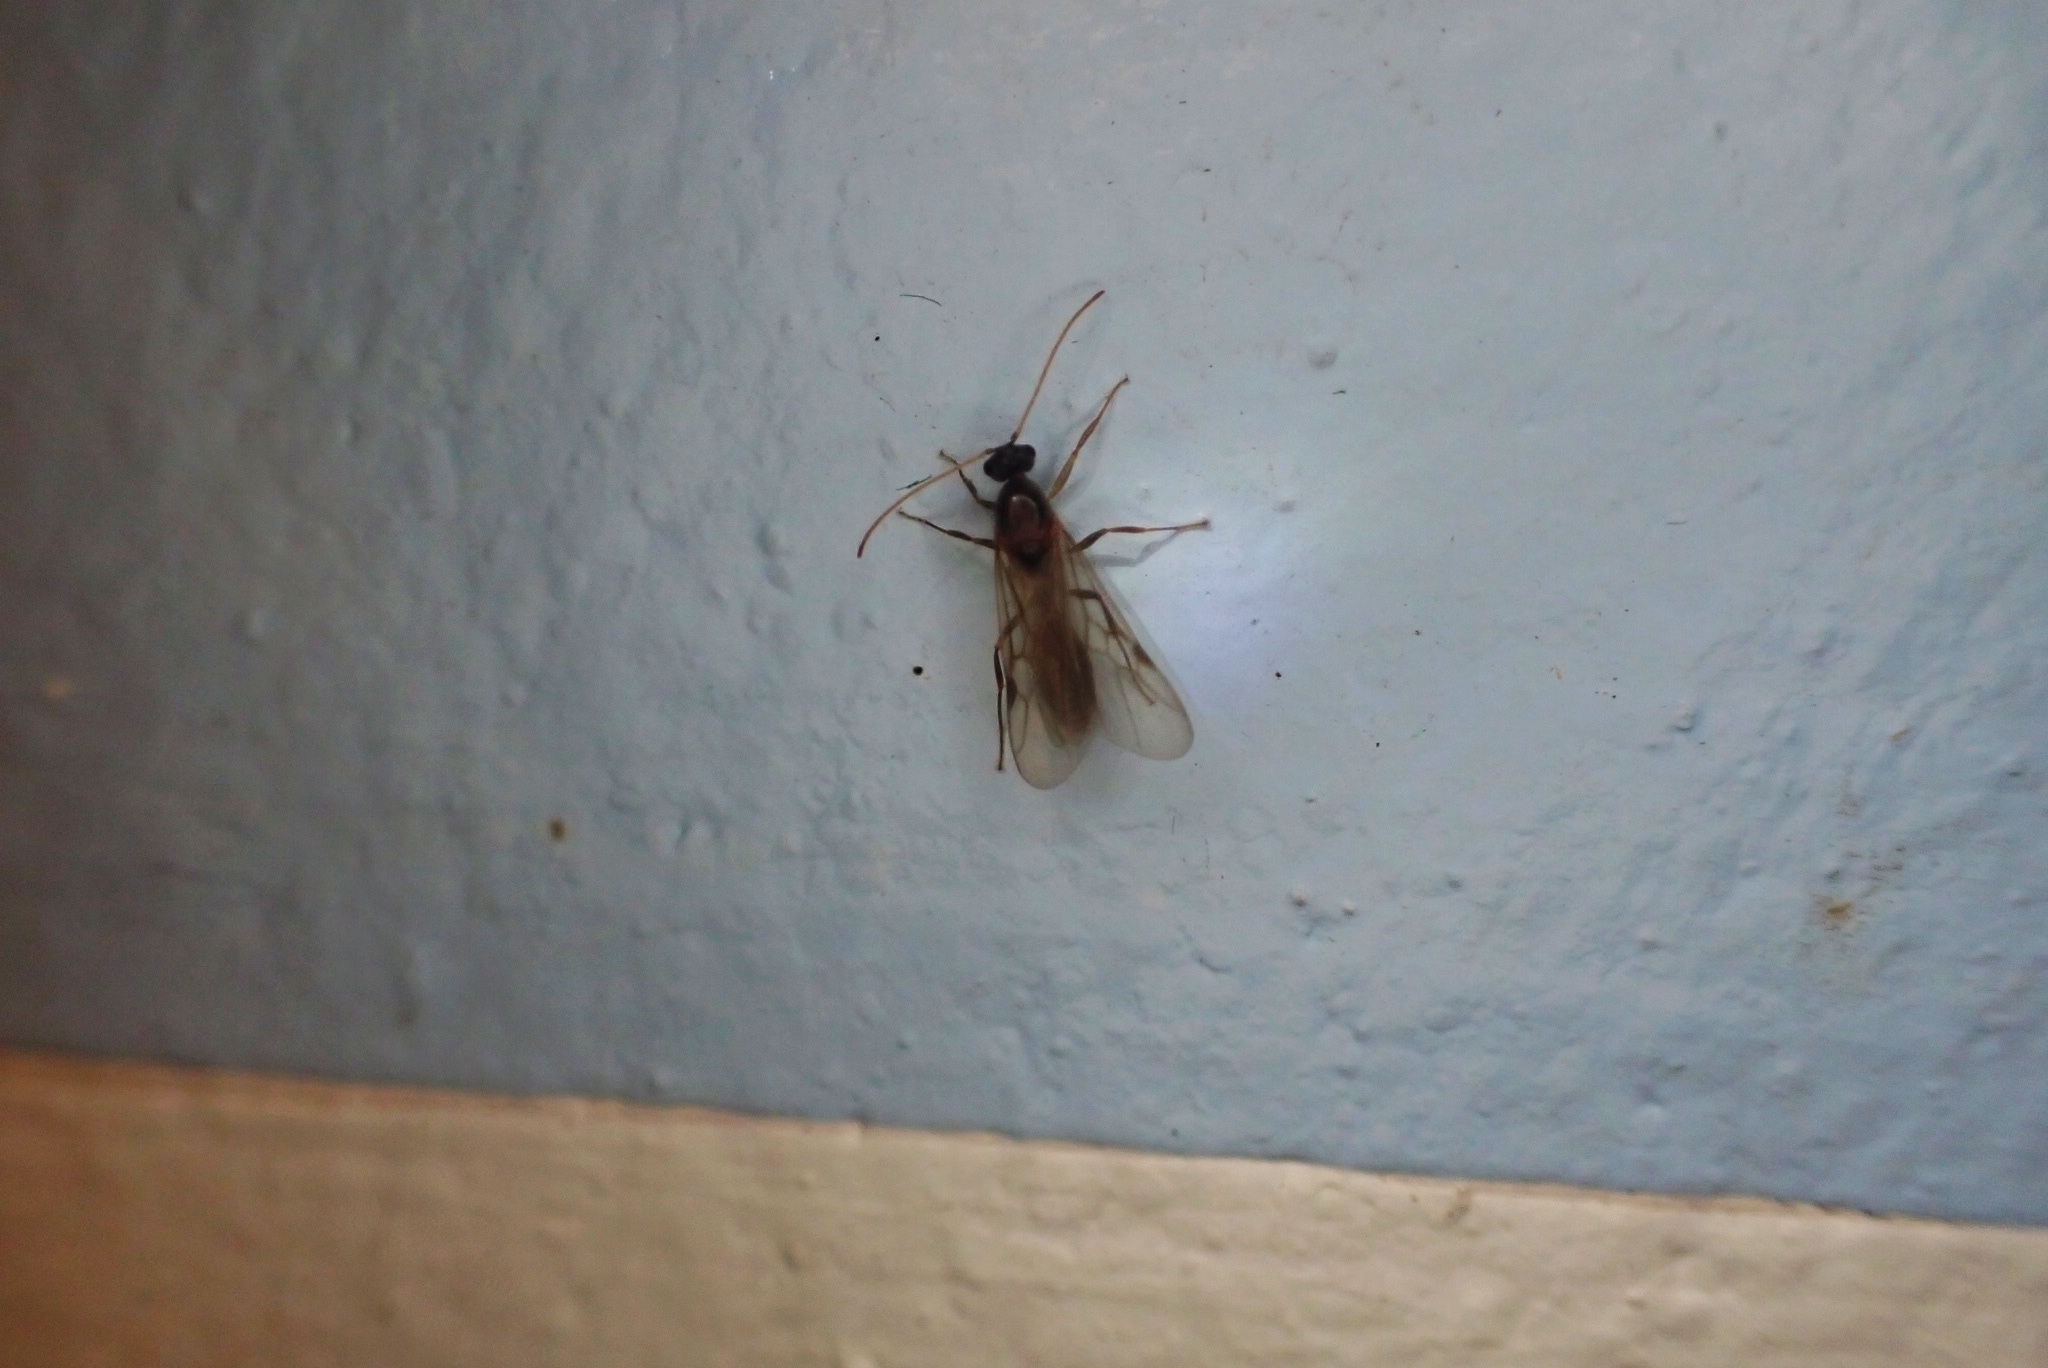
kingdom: Animalia
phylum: Arthropoda
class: Insecta
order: Hymenoptera
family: Formicidae
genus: Oecophylla
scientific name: Oecophylla smaragdina
